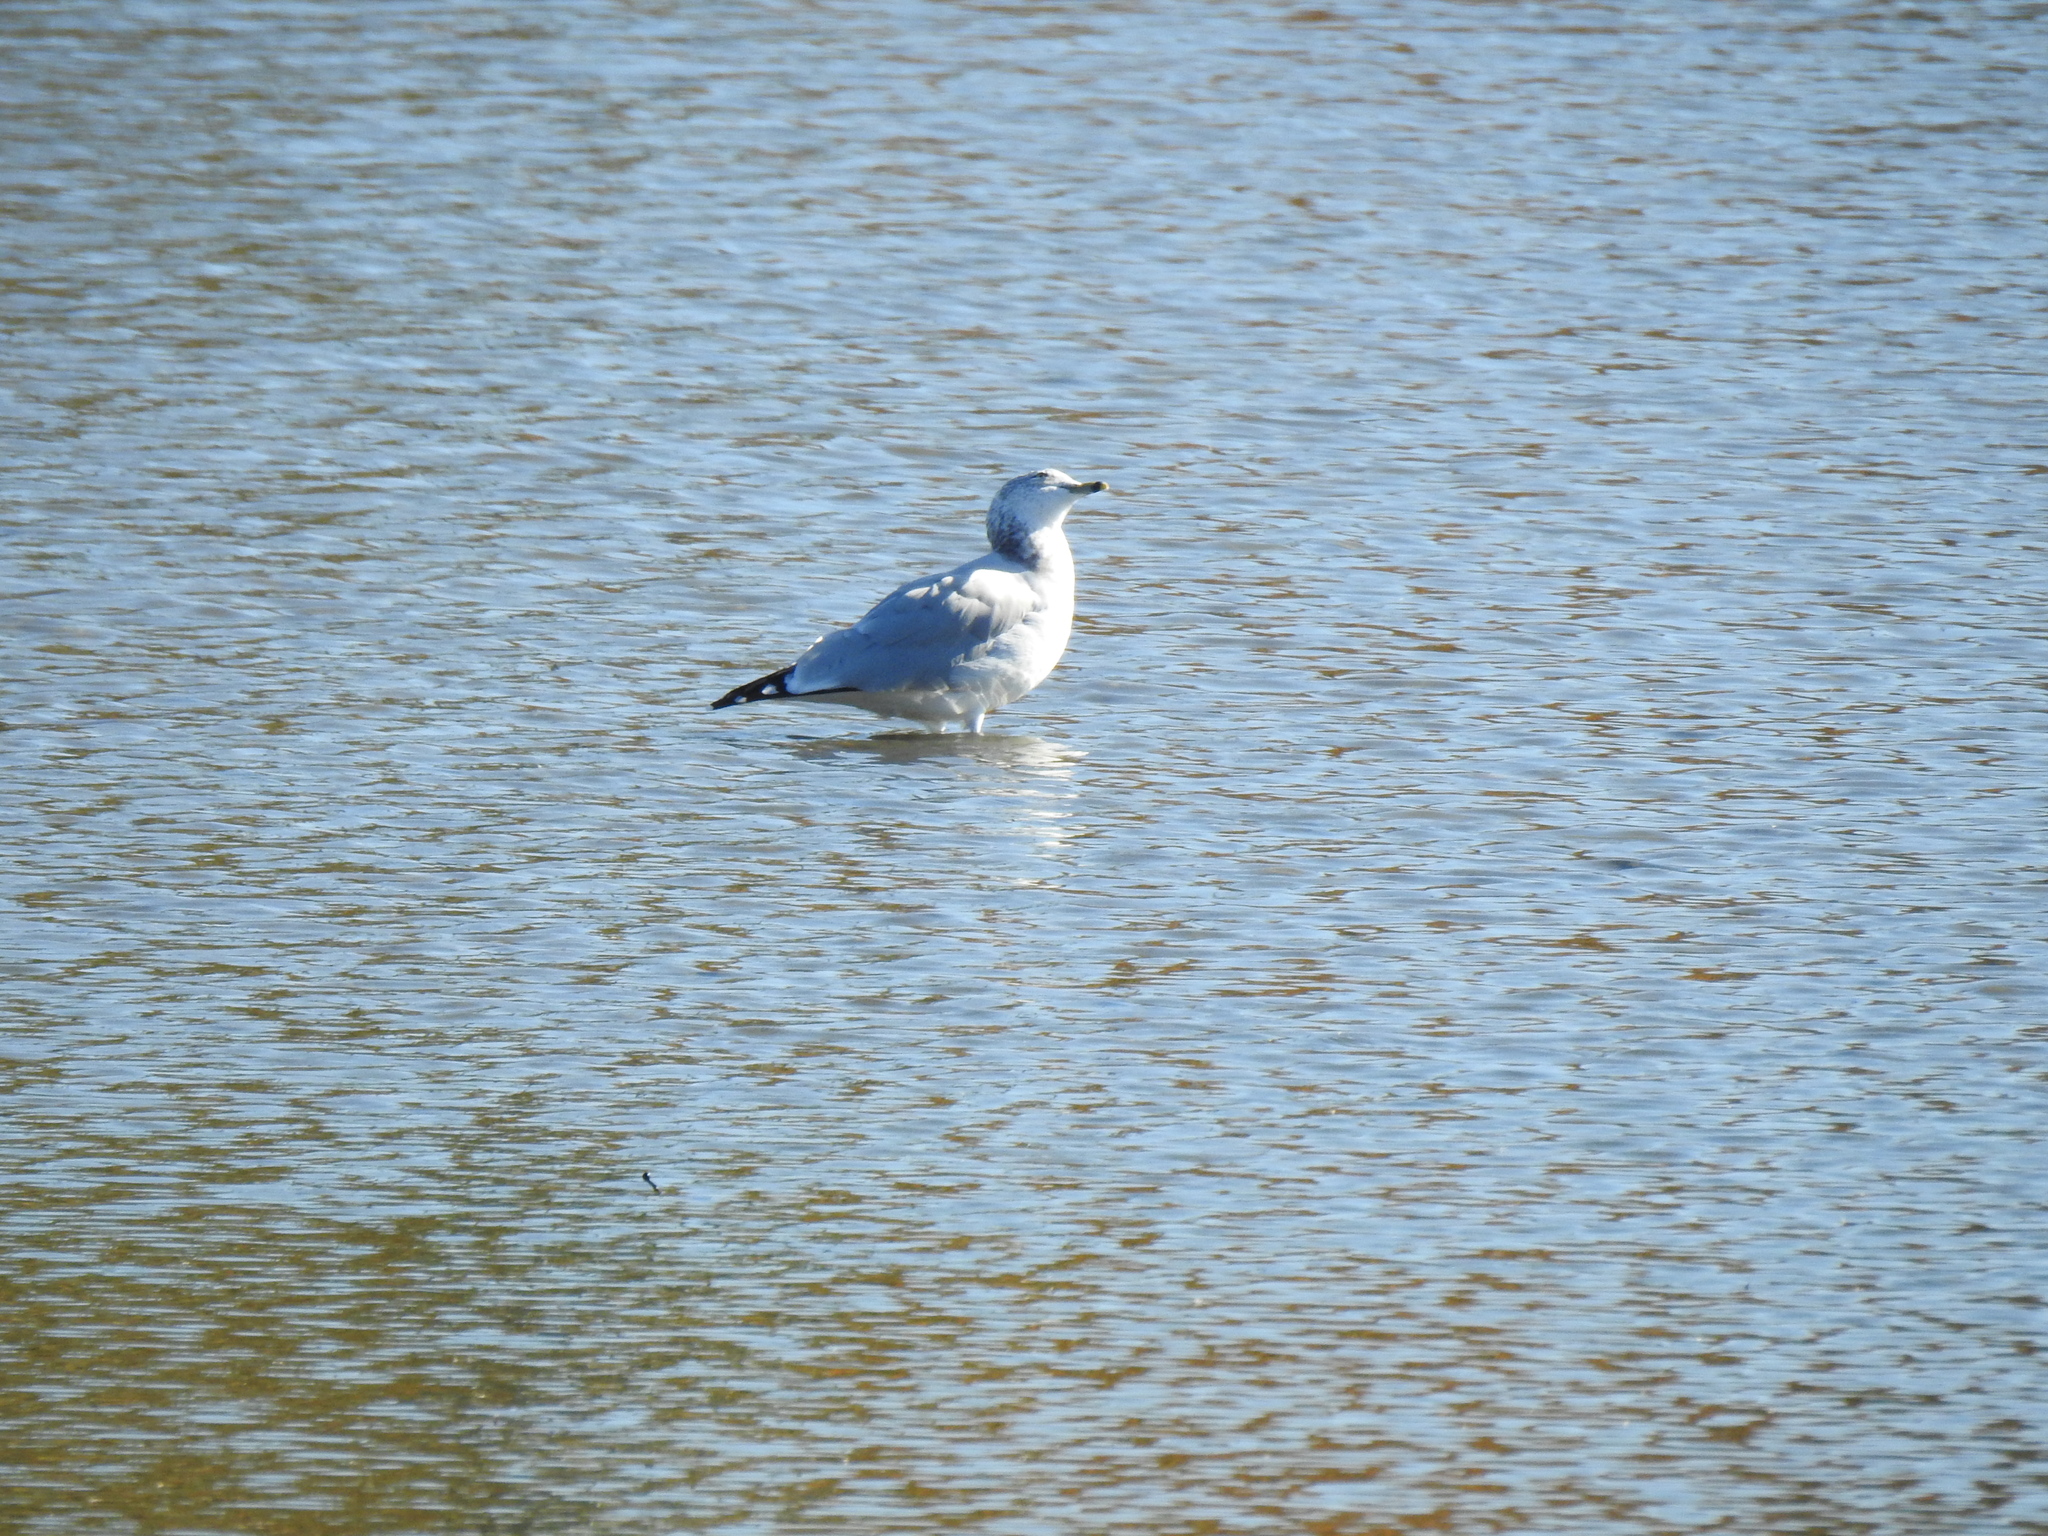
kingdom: Animalia
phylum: Chordata
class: Aves
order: Charadriiformes
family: Laridae
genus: Larus
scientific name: Larus delawarensis
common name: Ring-billed gull
